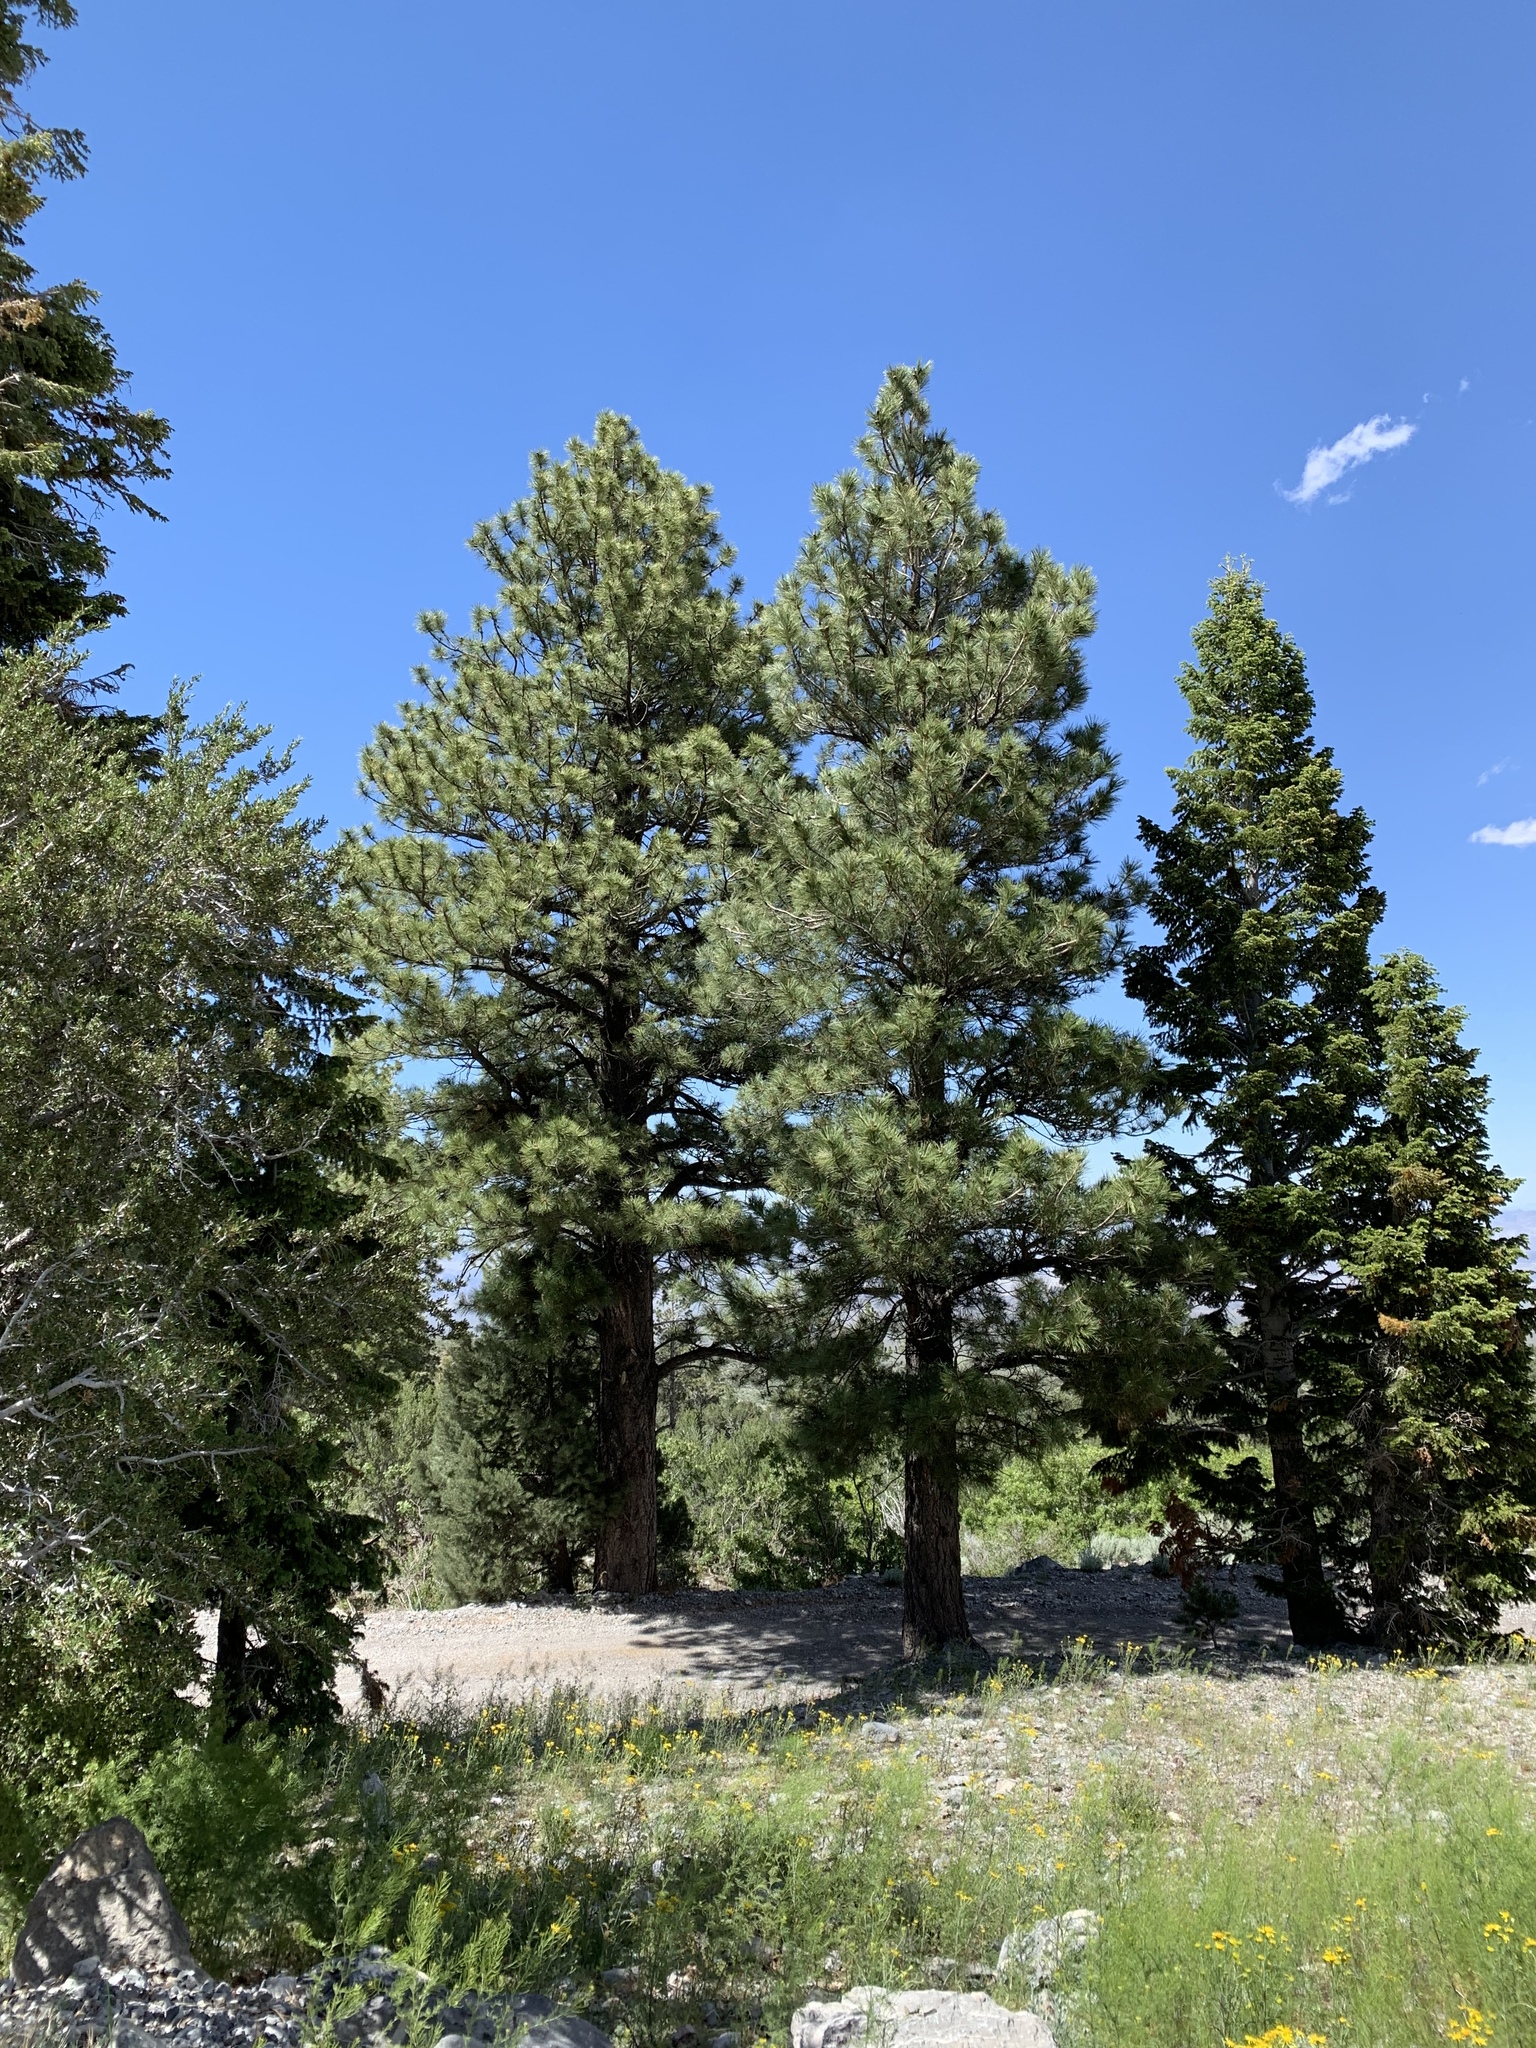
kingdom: Plantae
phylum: Tracheophyta
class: Pinopsida
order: Pinales
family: Pinaceae
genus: Pinus
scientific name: Pinus ponderosa
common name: Western yellow-pine
